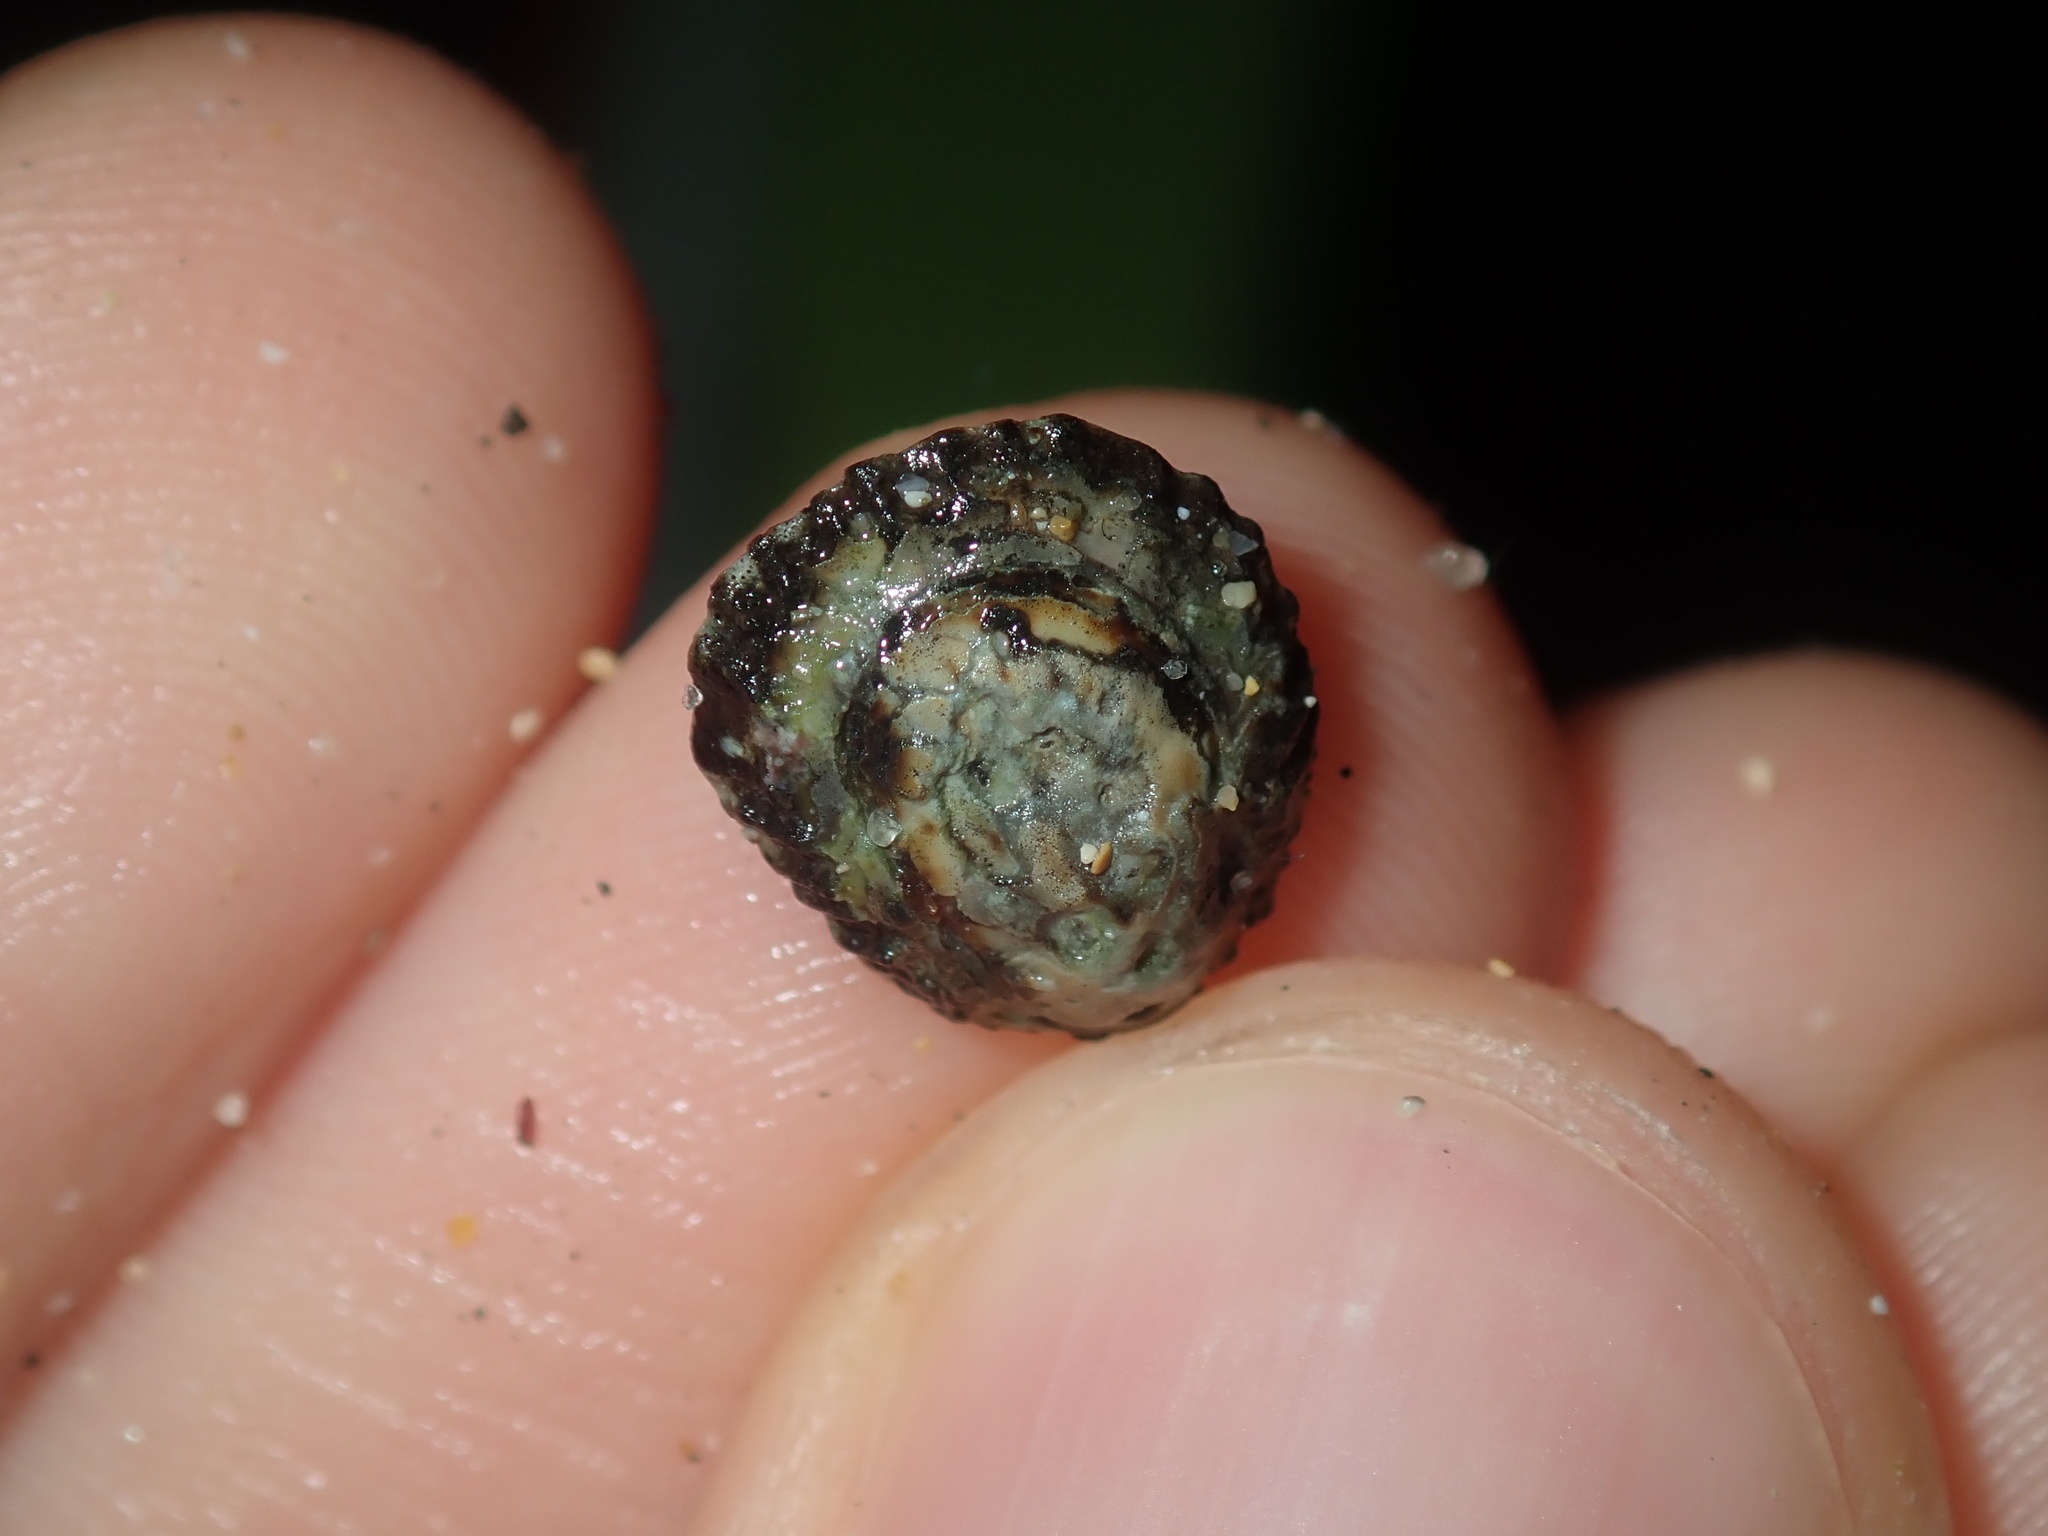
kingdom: Animalia
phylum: Mollusca
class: Gastropoda
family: Lottiidae
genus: Patelloida
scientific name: Patelloida latistrigata
